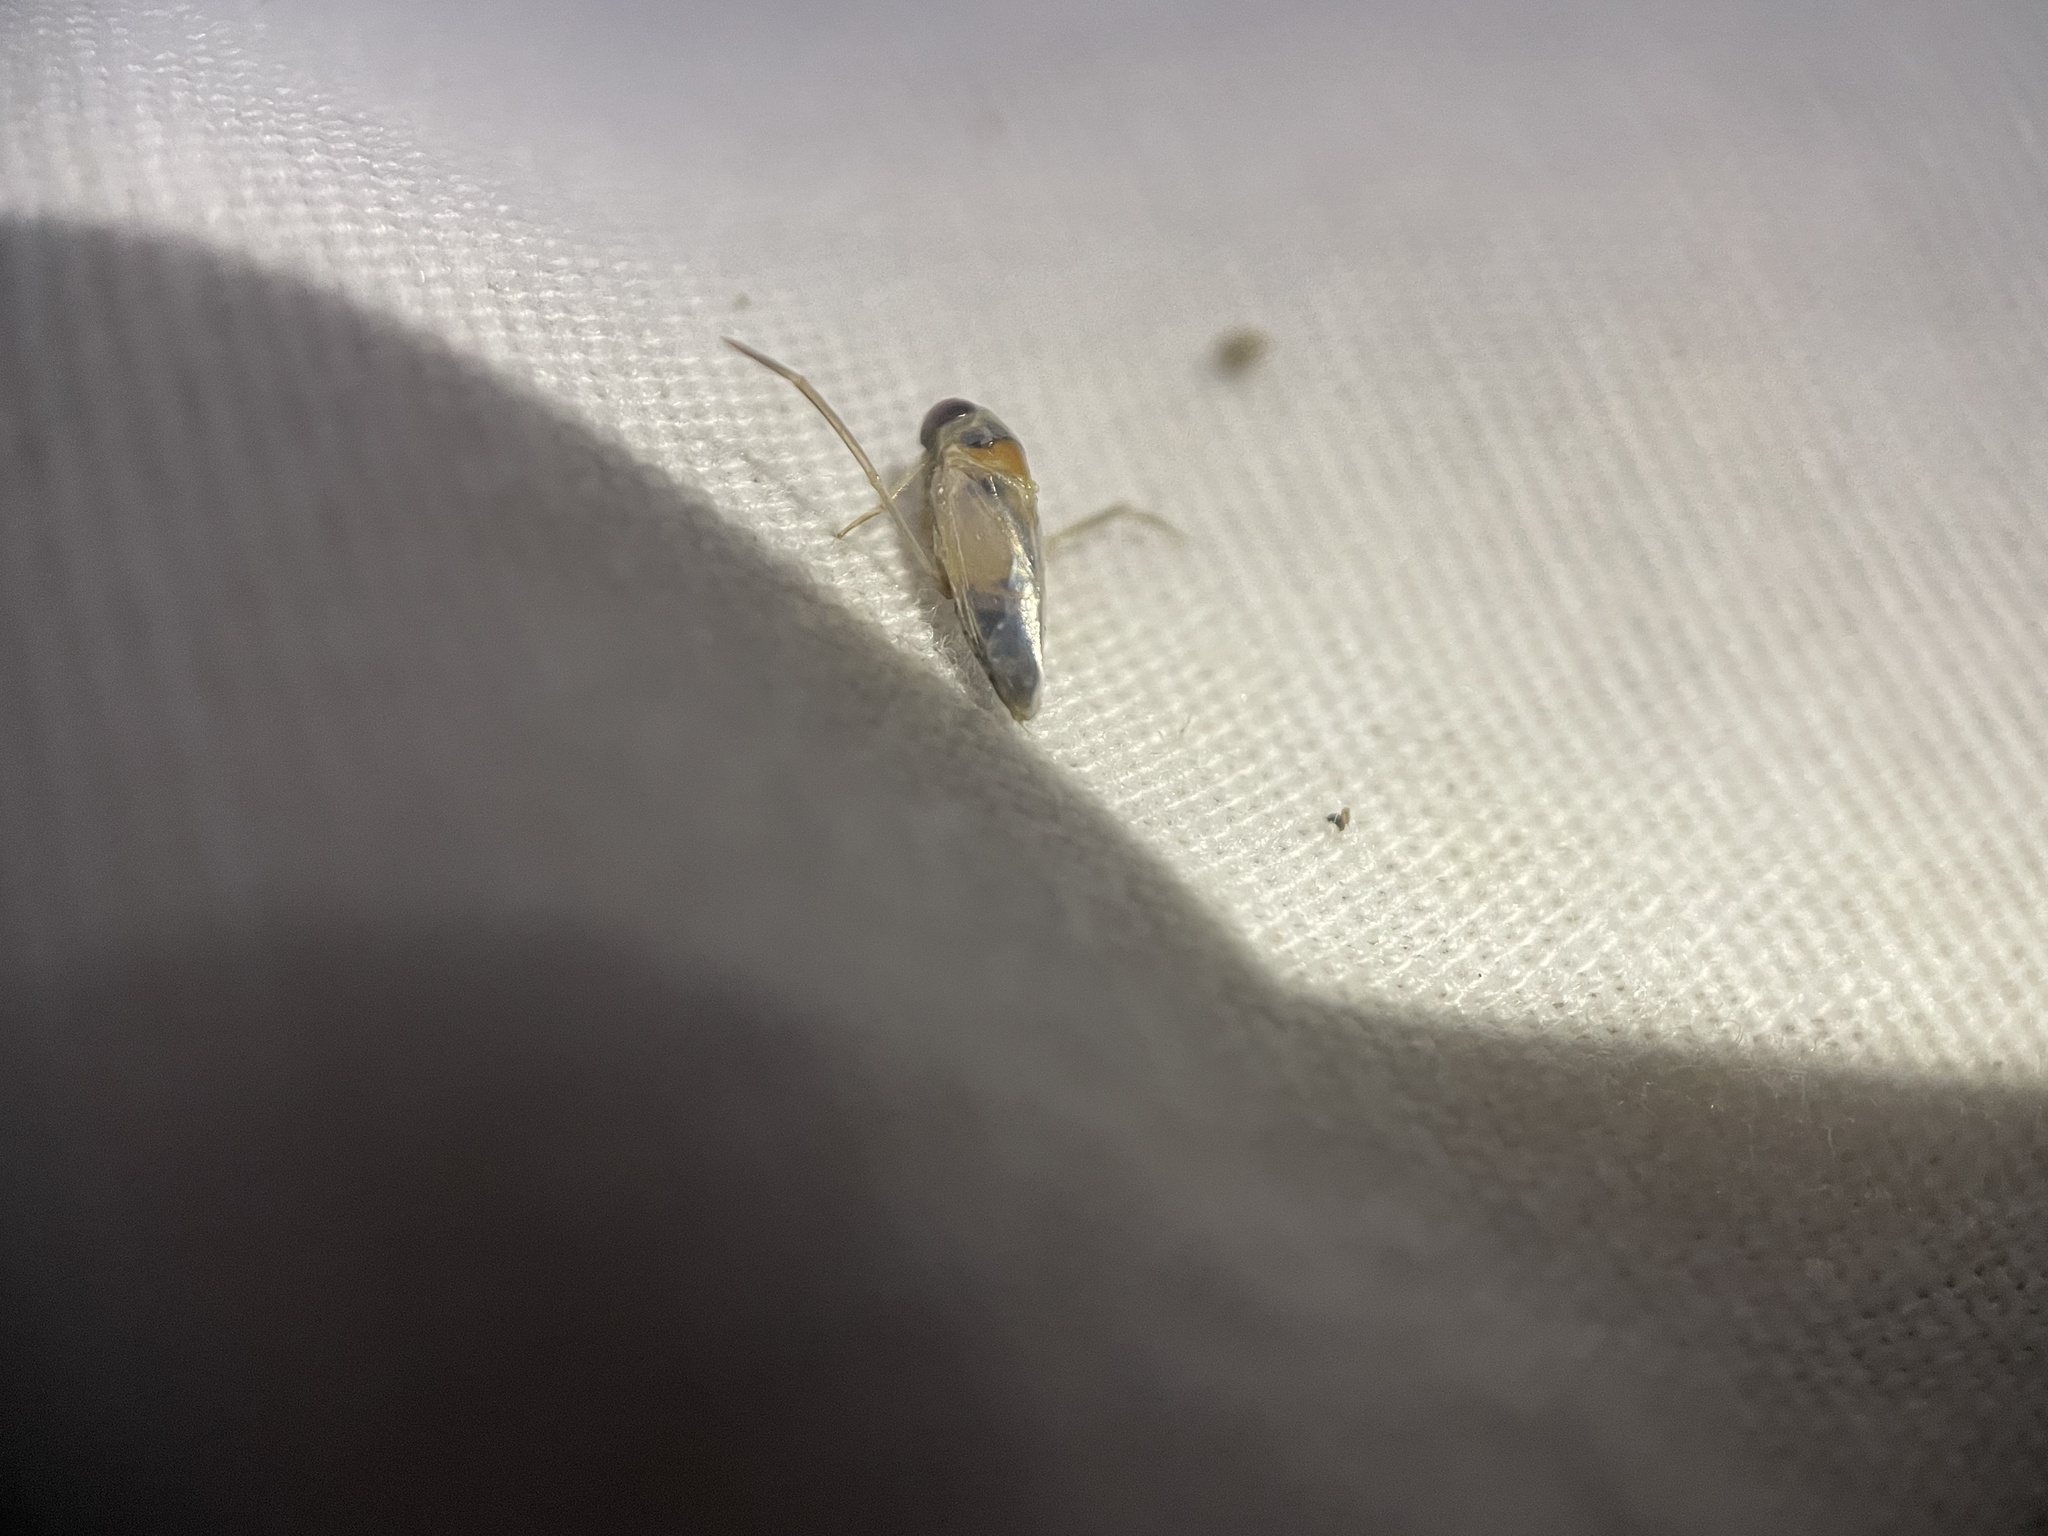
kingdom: Animalia
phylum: Arthropoda
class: Insecta
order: Hemiptera
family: Notonectidae
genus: Buenoa
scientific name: Buenoa
